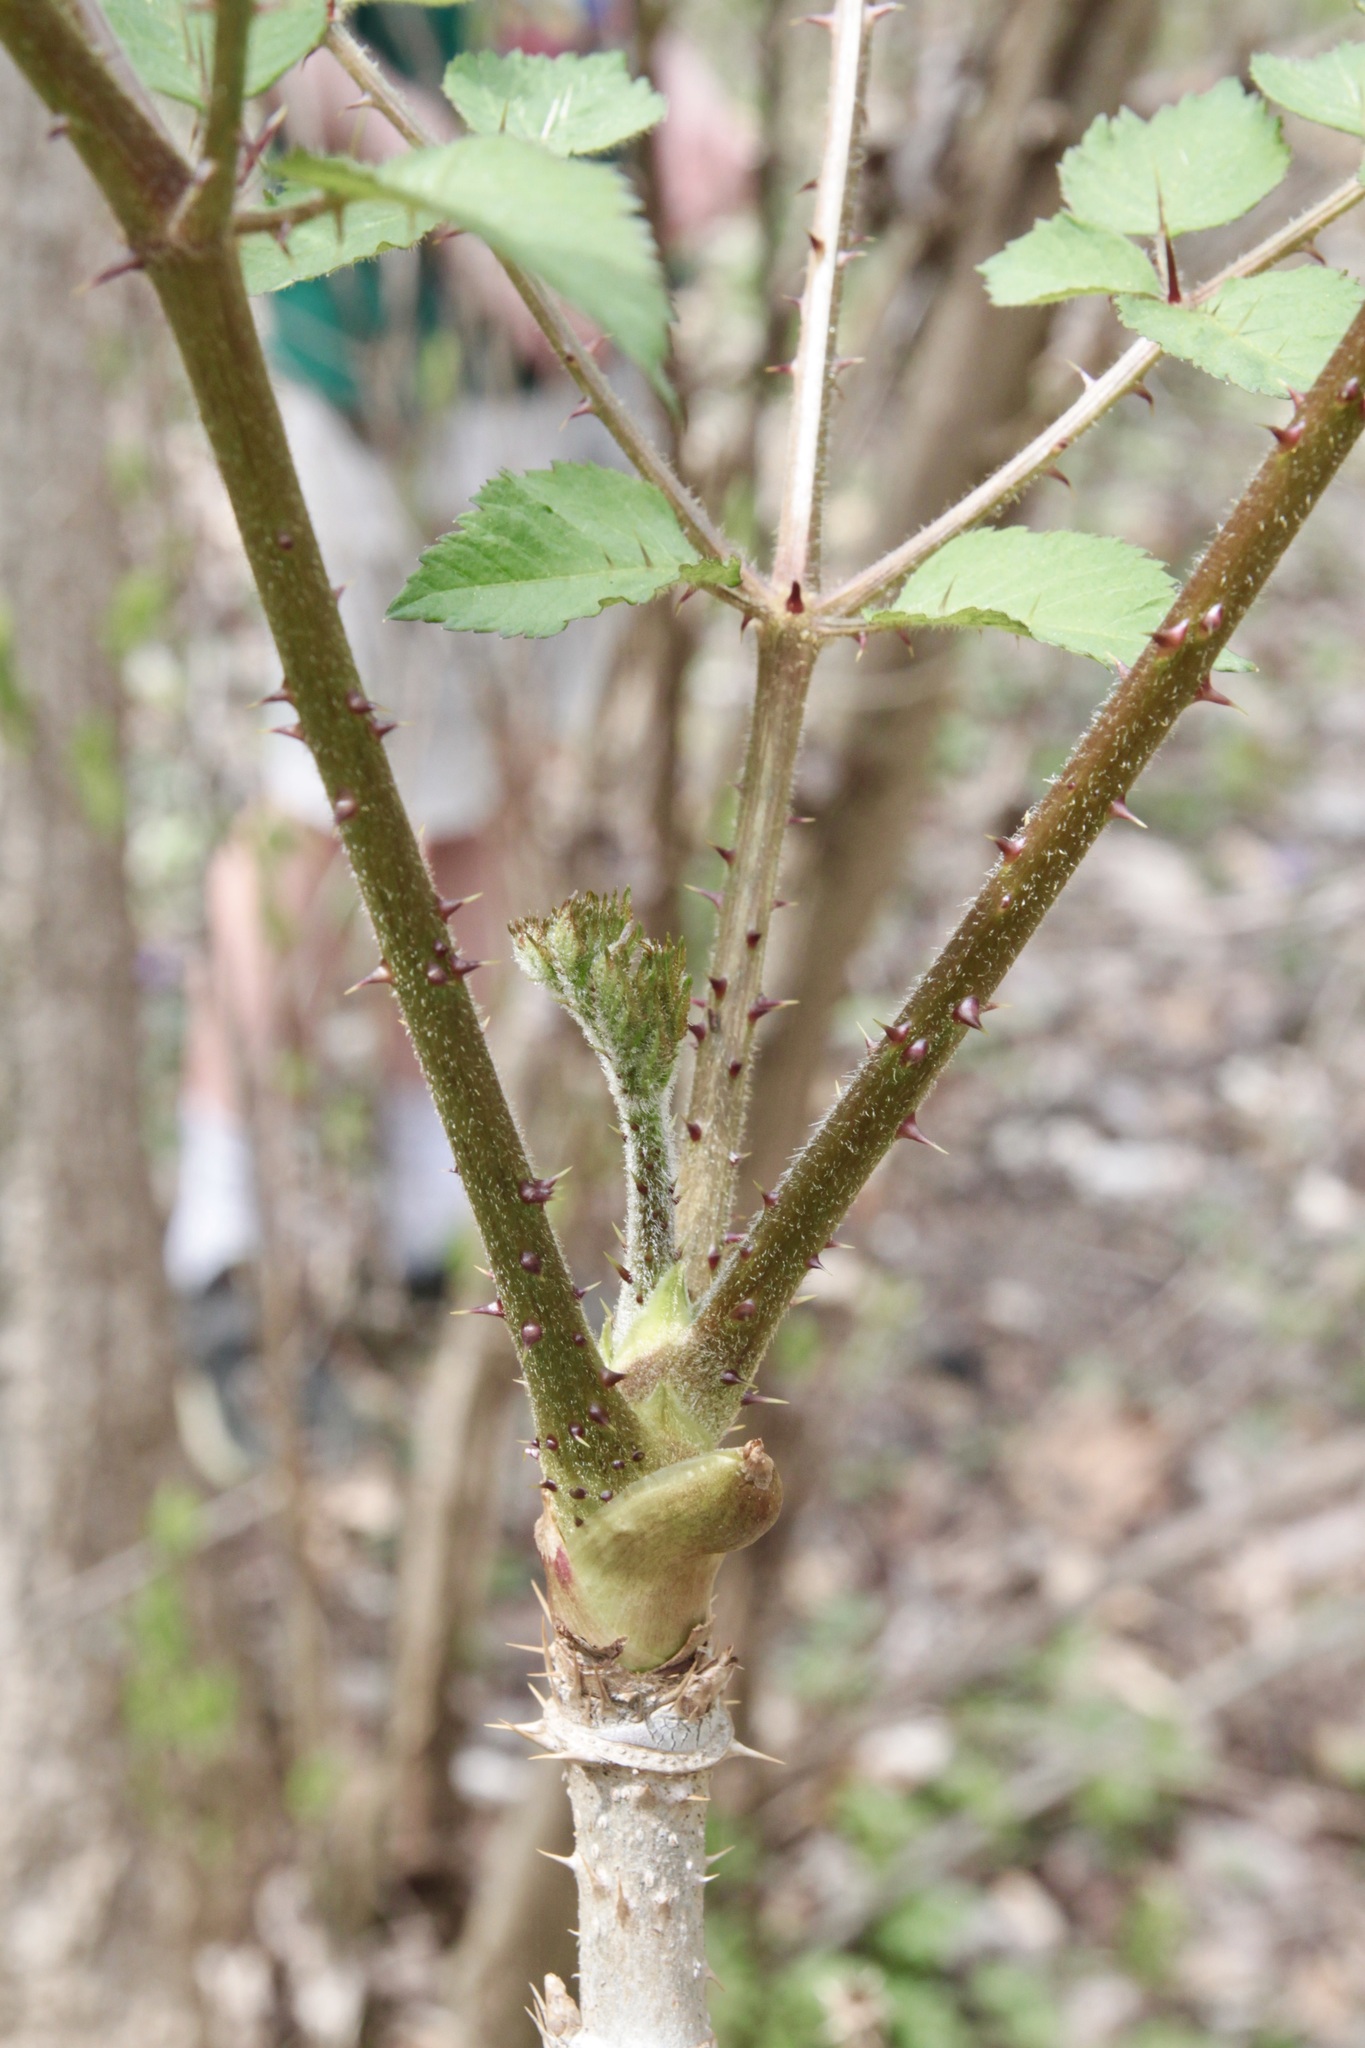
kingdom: Plantae
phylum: Tracheophyta
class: Magnoliopsida
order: Apiales
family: Araliaceae
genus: Aralia
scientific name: Aralia spinosa
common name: Hercules'-club
